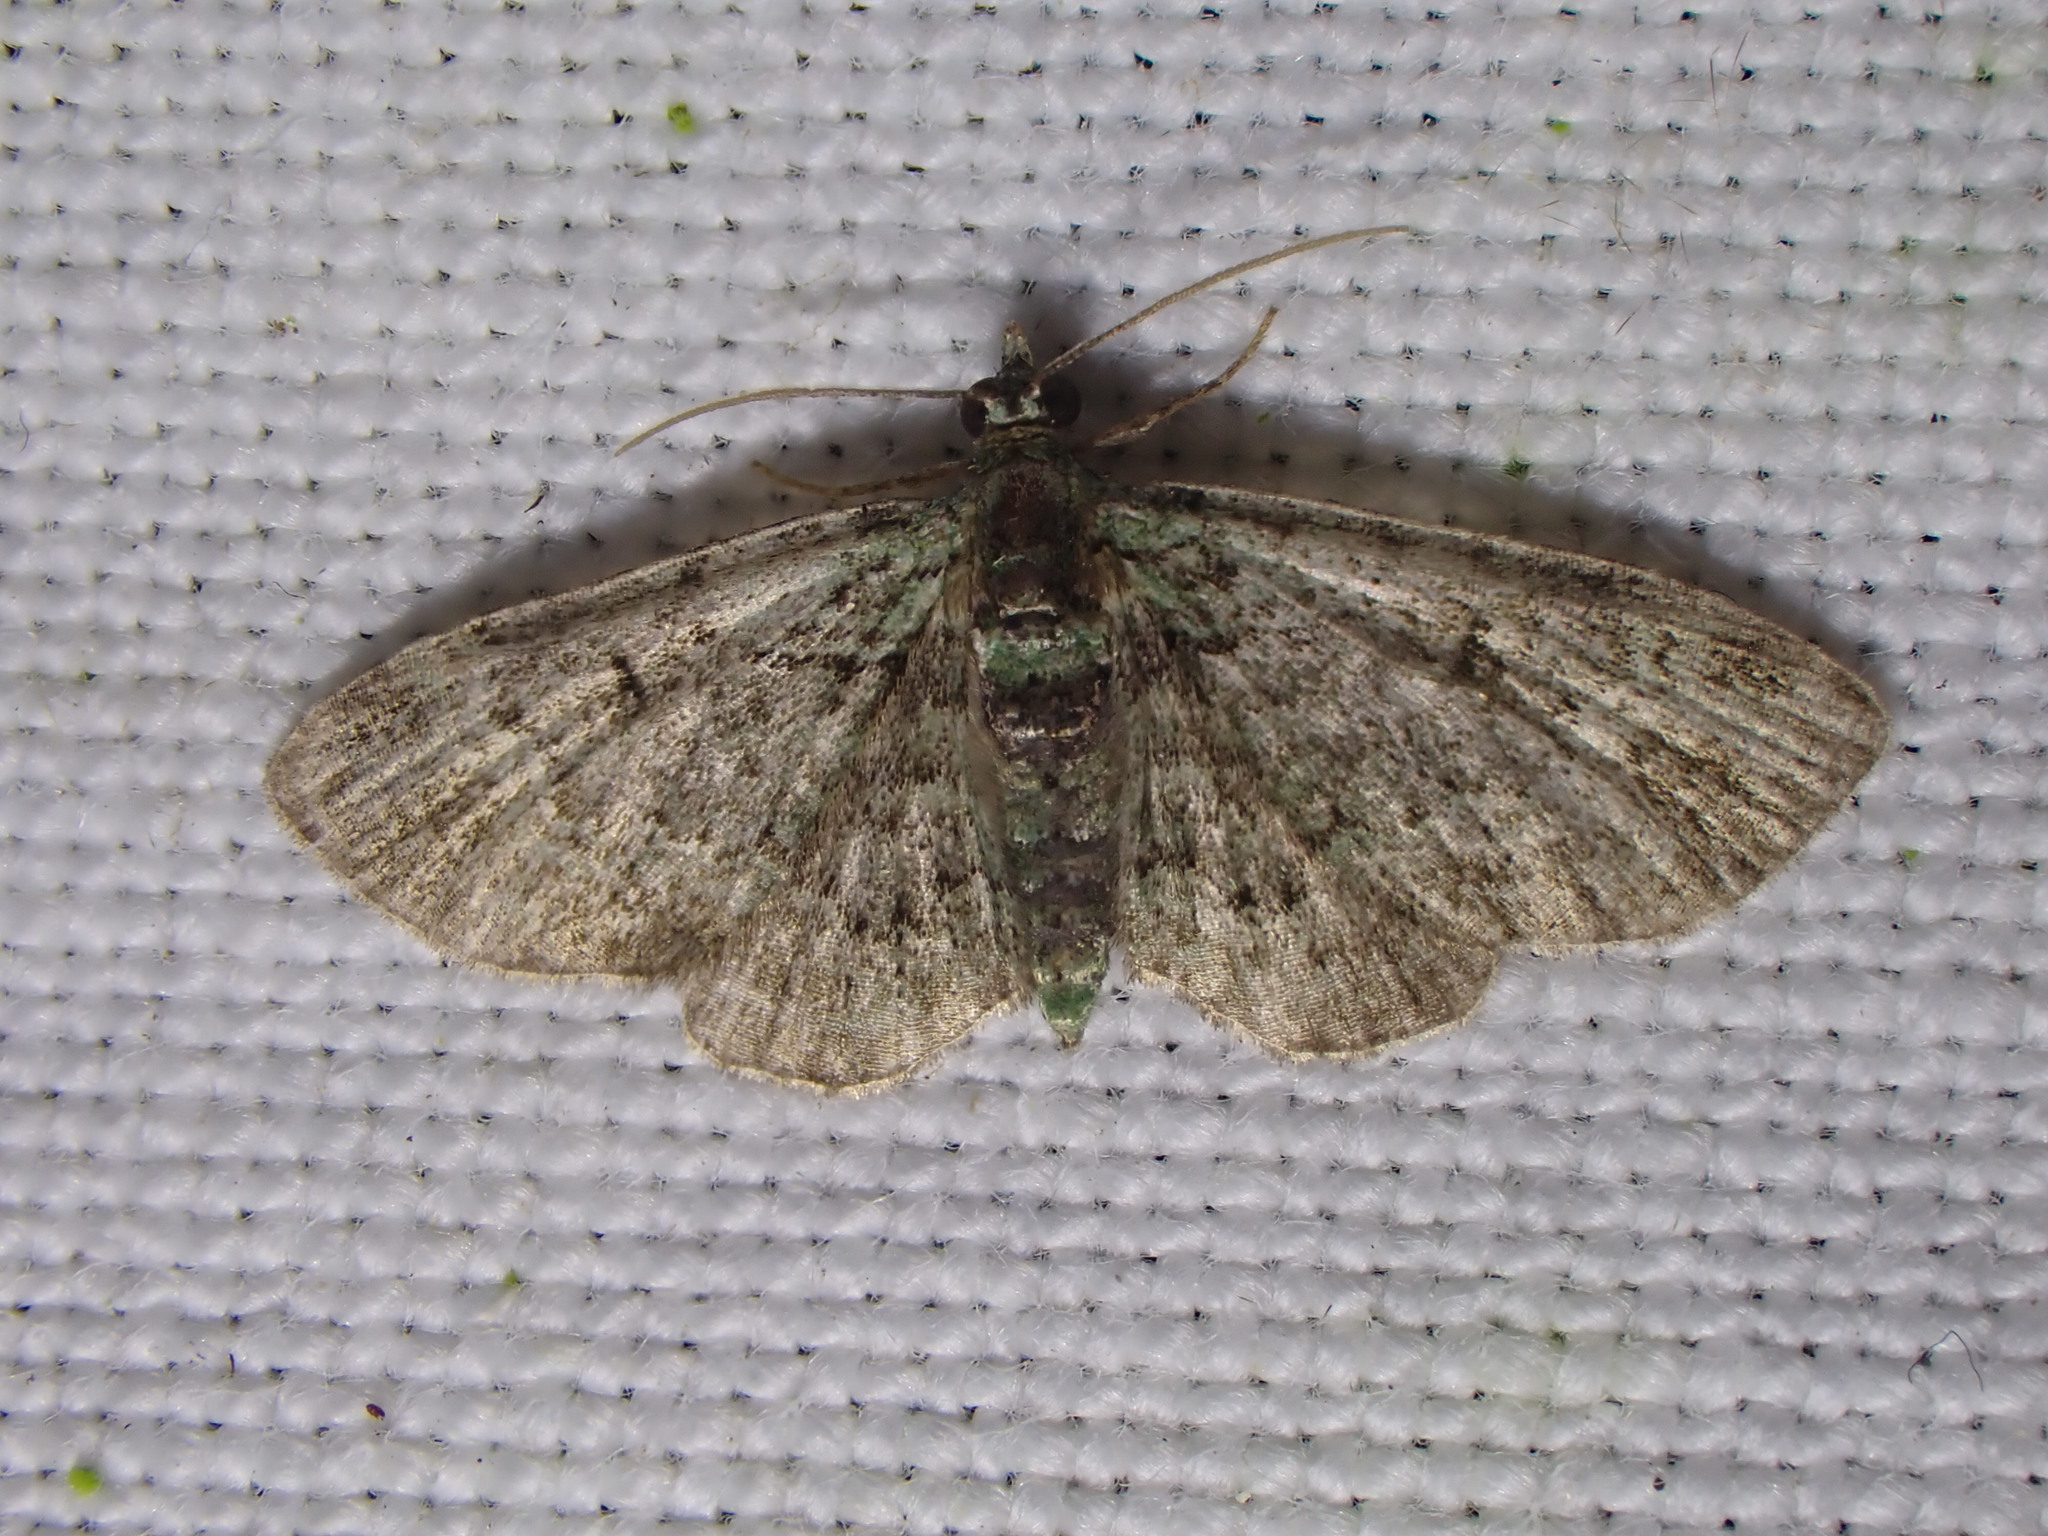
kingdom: Animalia
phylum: Arthropoda
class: Insecta
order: Lepidoptera
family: Geometridae
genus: Pasiphila
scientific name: Pasiphila rectangulata
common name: Green pug
